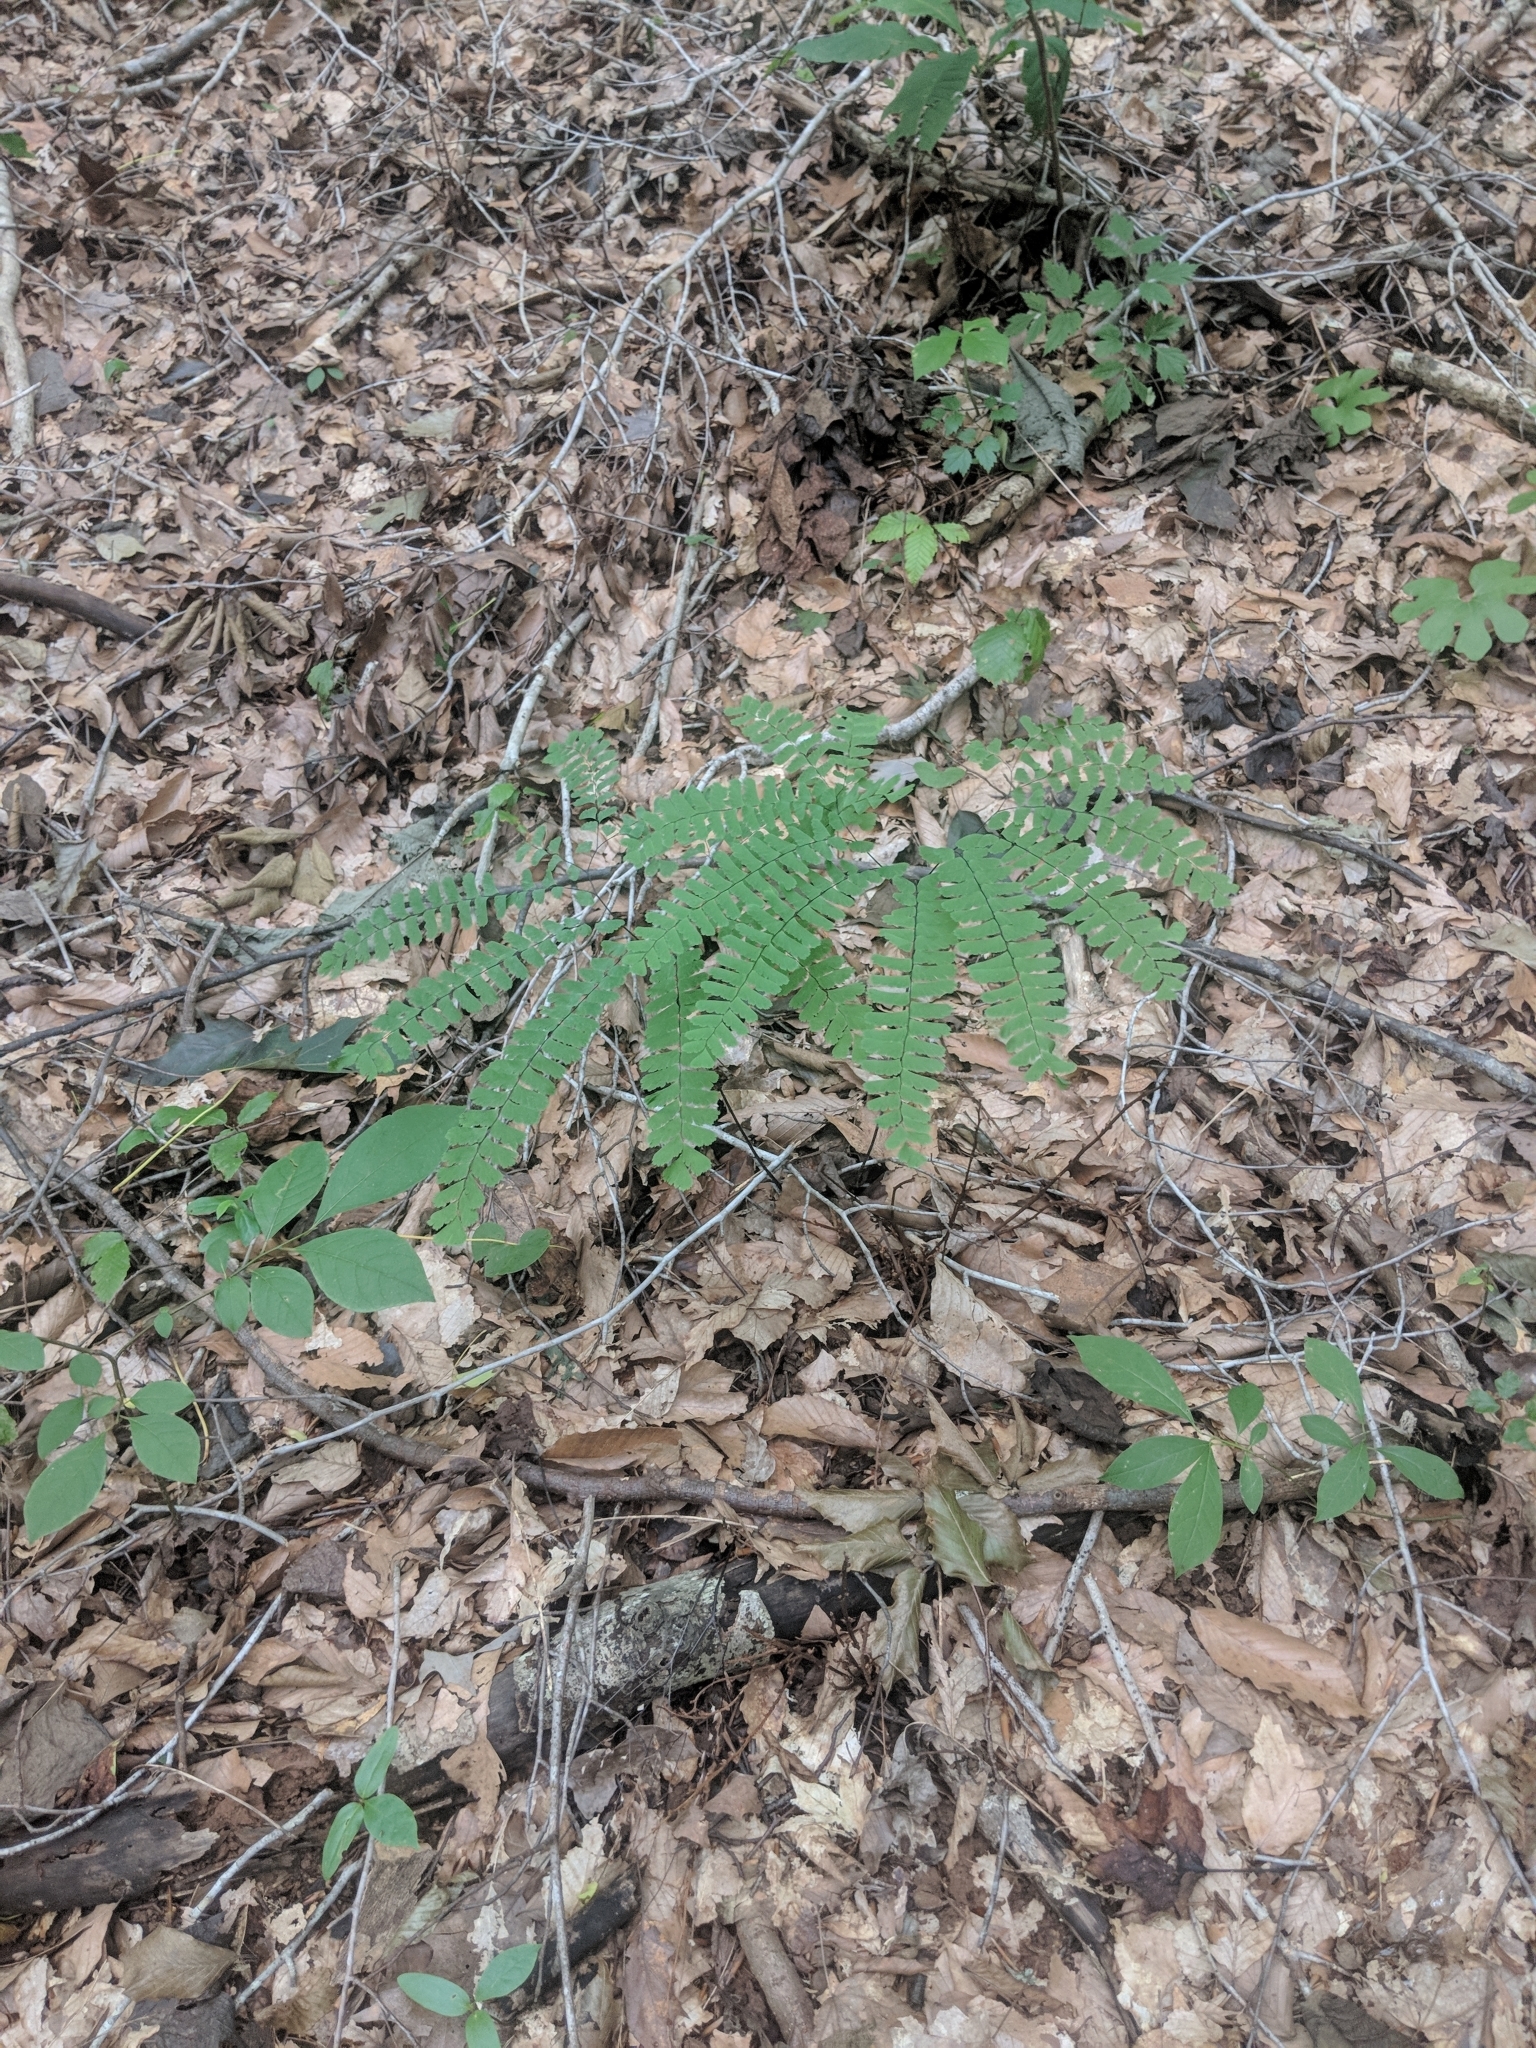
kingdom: Plantae
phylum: Tracheophyta
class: Polypodiopsida
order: Polypodiales
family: Pteridaceae
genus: Adiantum
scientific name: Adiantum pedatum
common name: Five-finger fern
